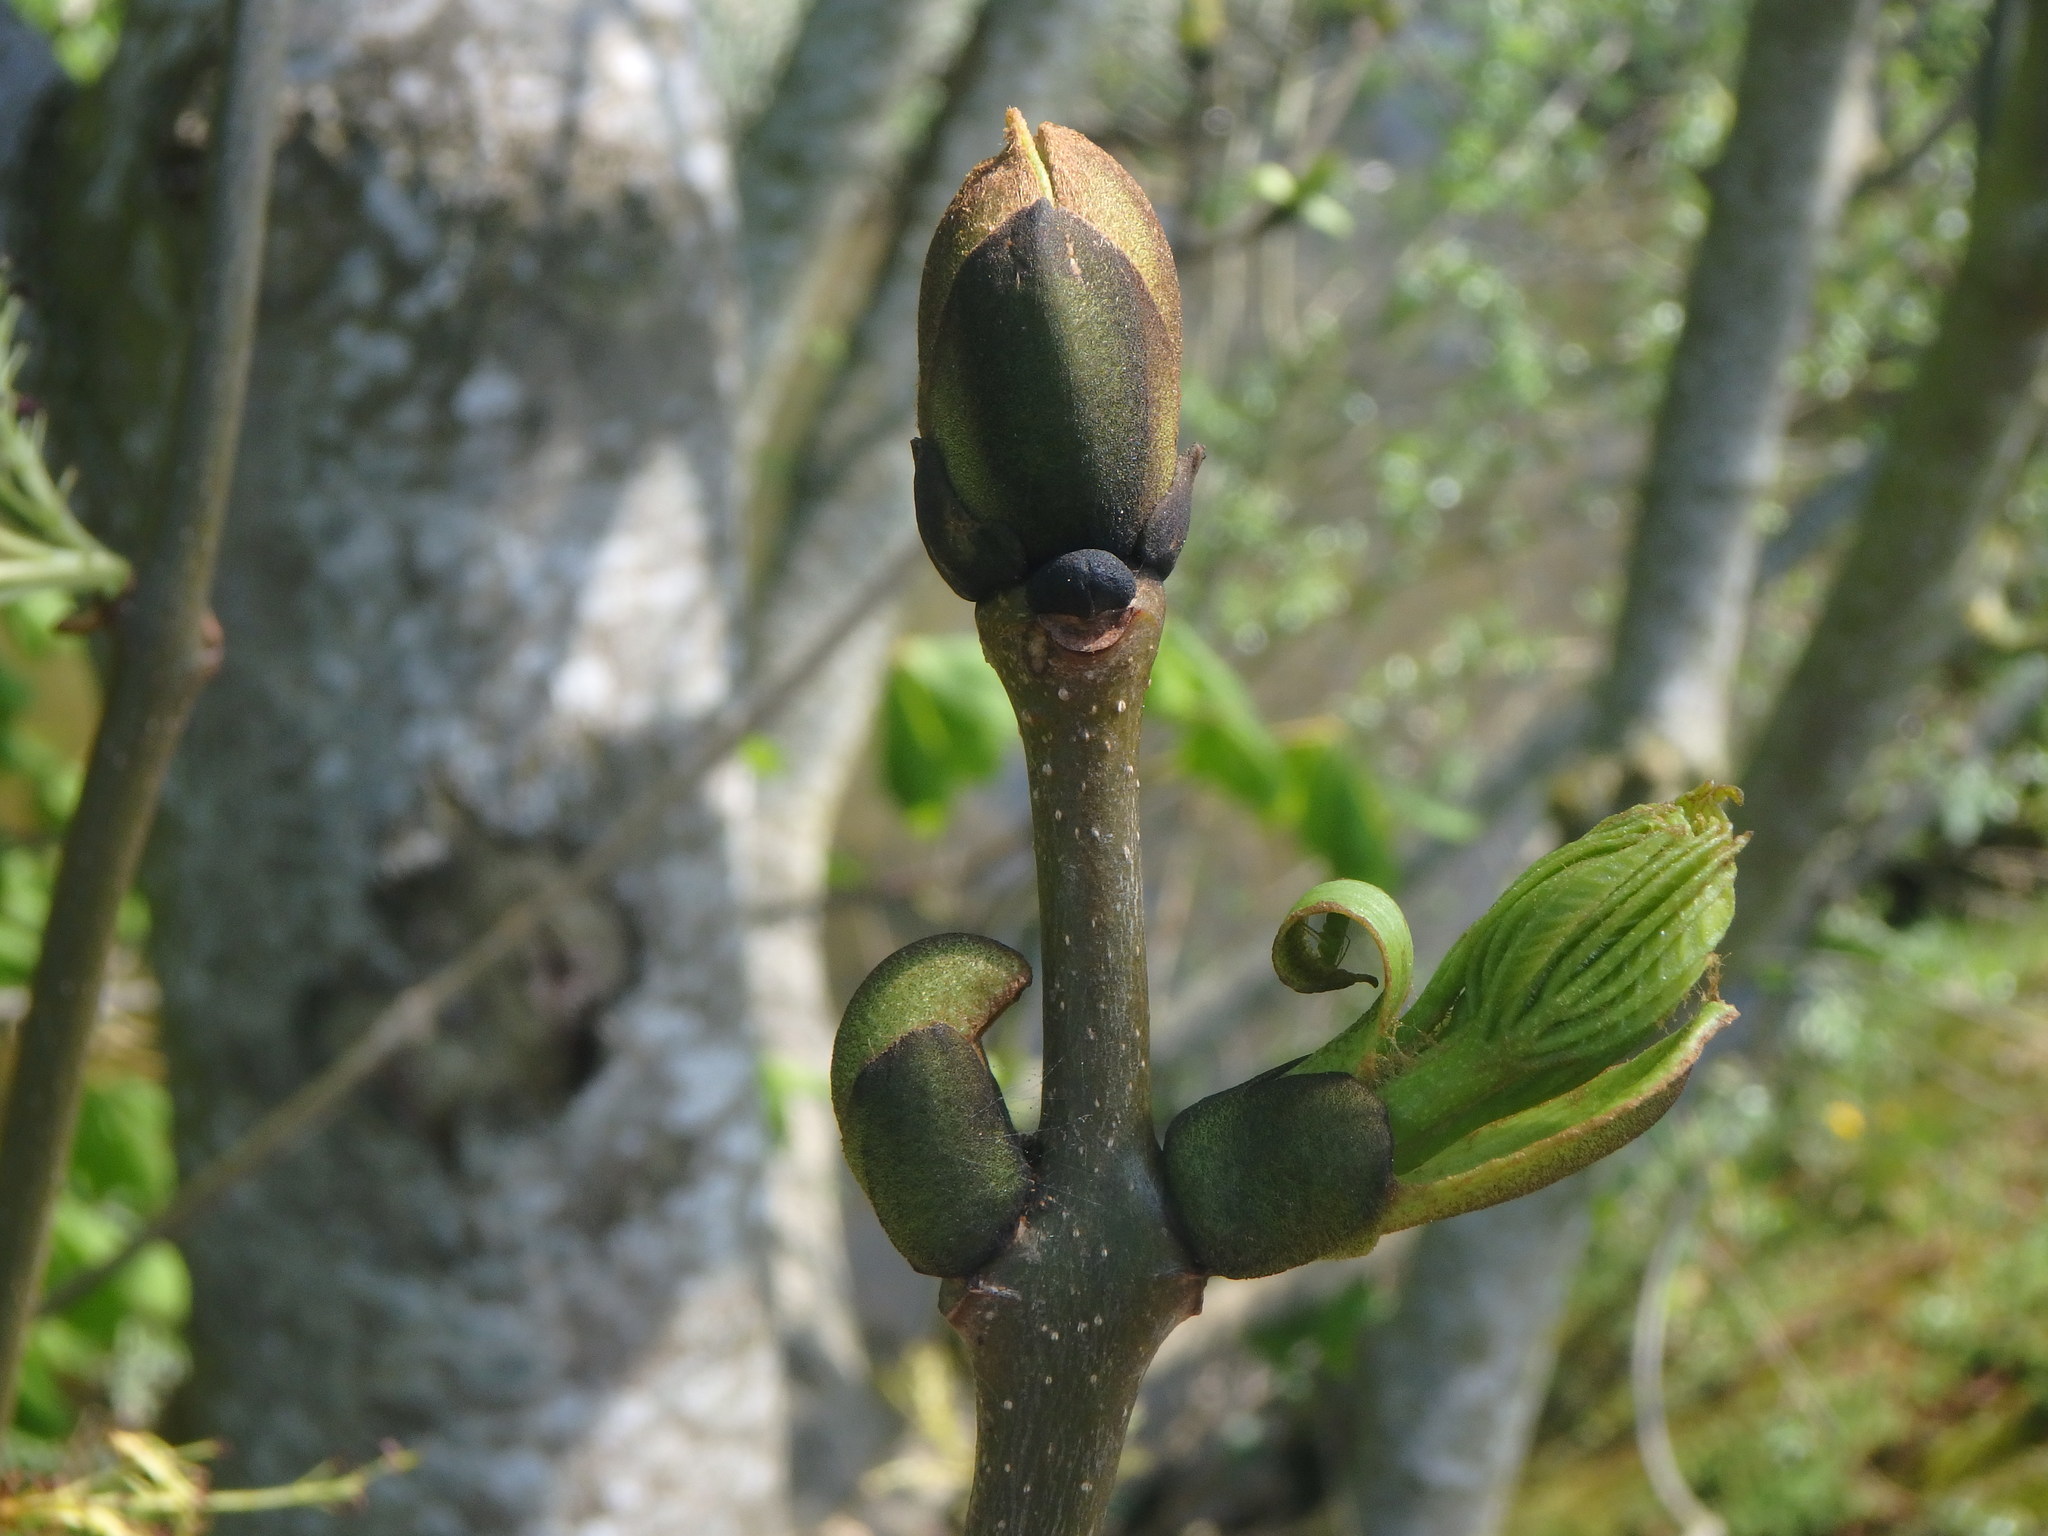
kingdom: Plantae
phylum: Tracheophyta
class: Magnoliopsida
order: Lamiales
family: Oleaceae
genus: Fraxinus
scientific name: Fraxinus excelsior
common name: European ash
